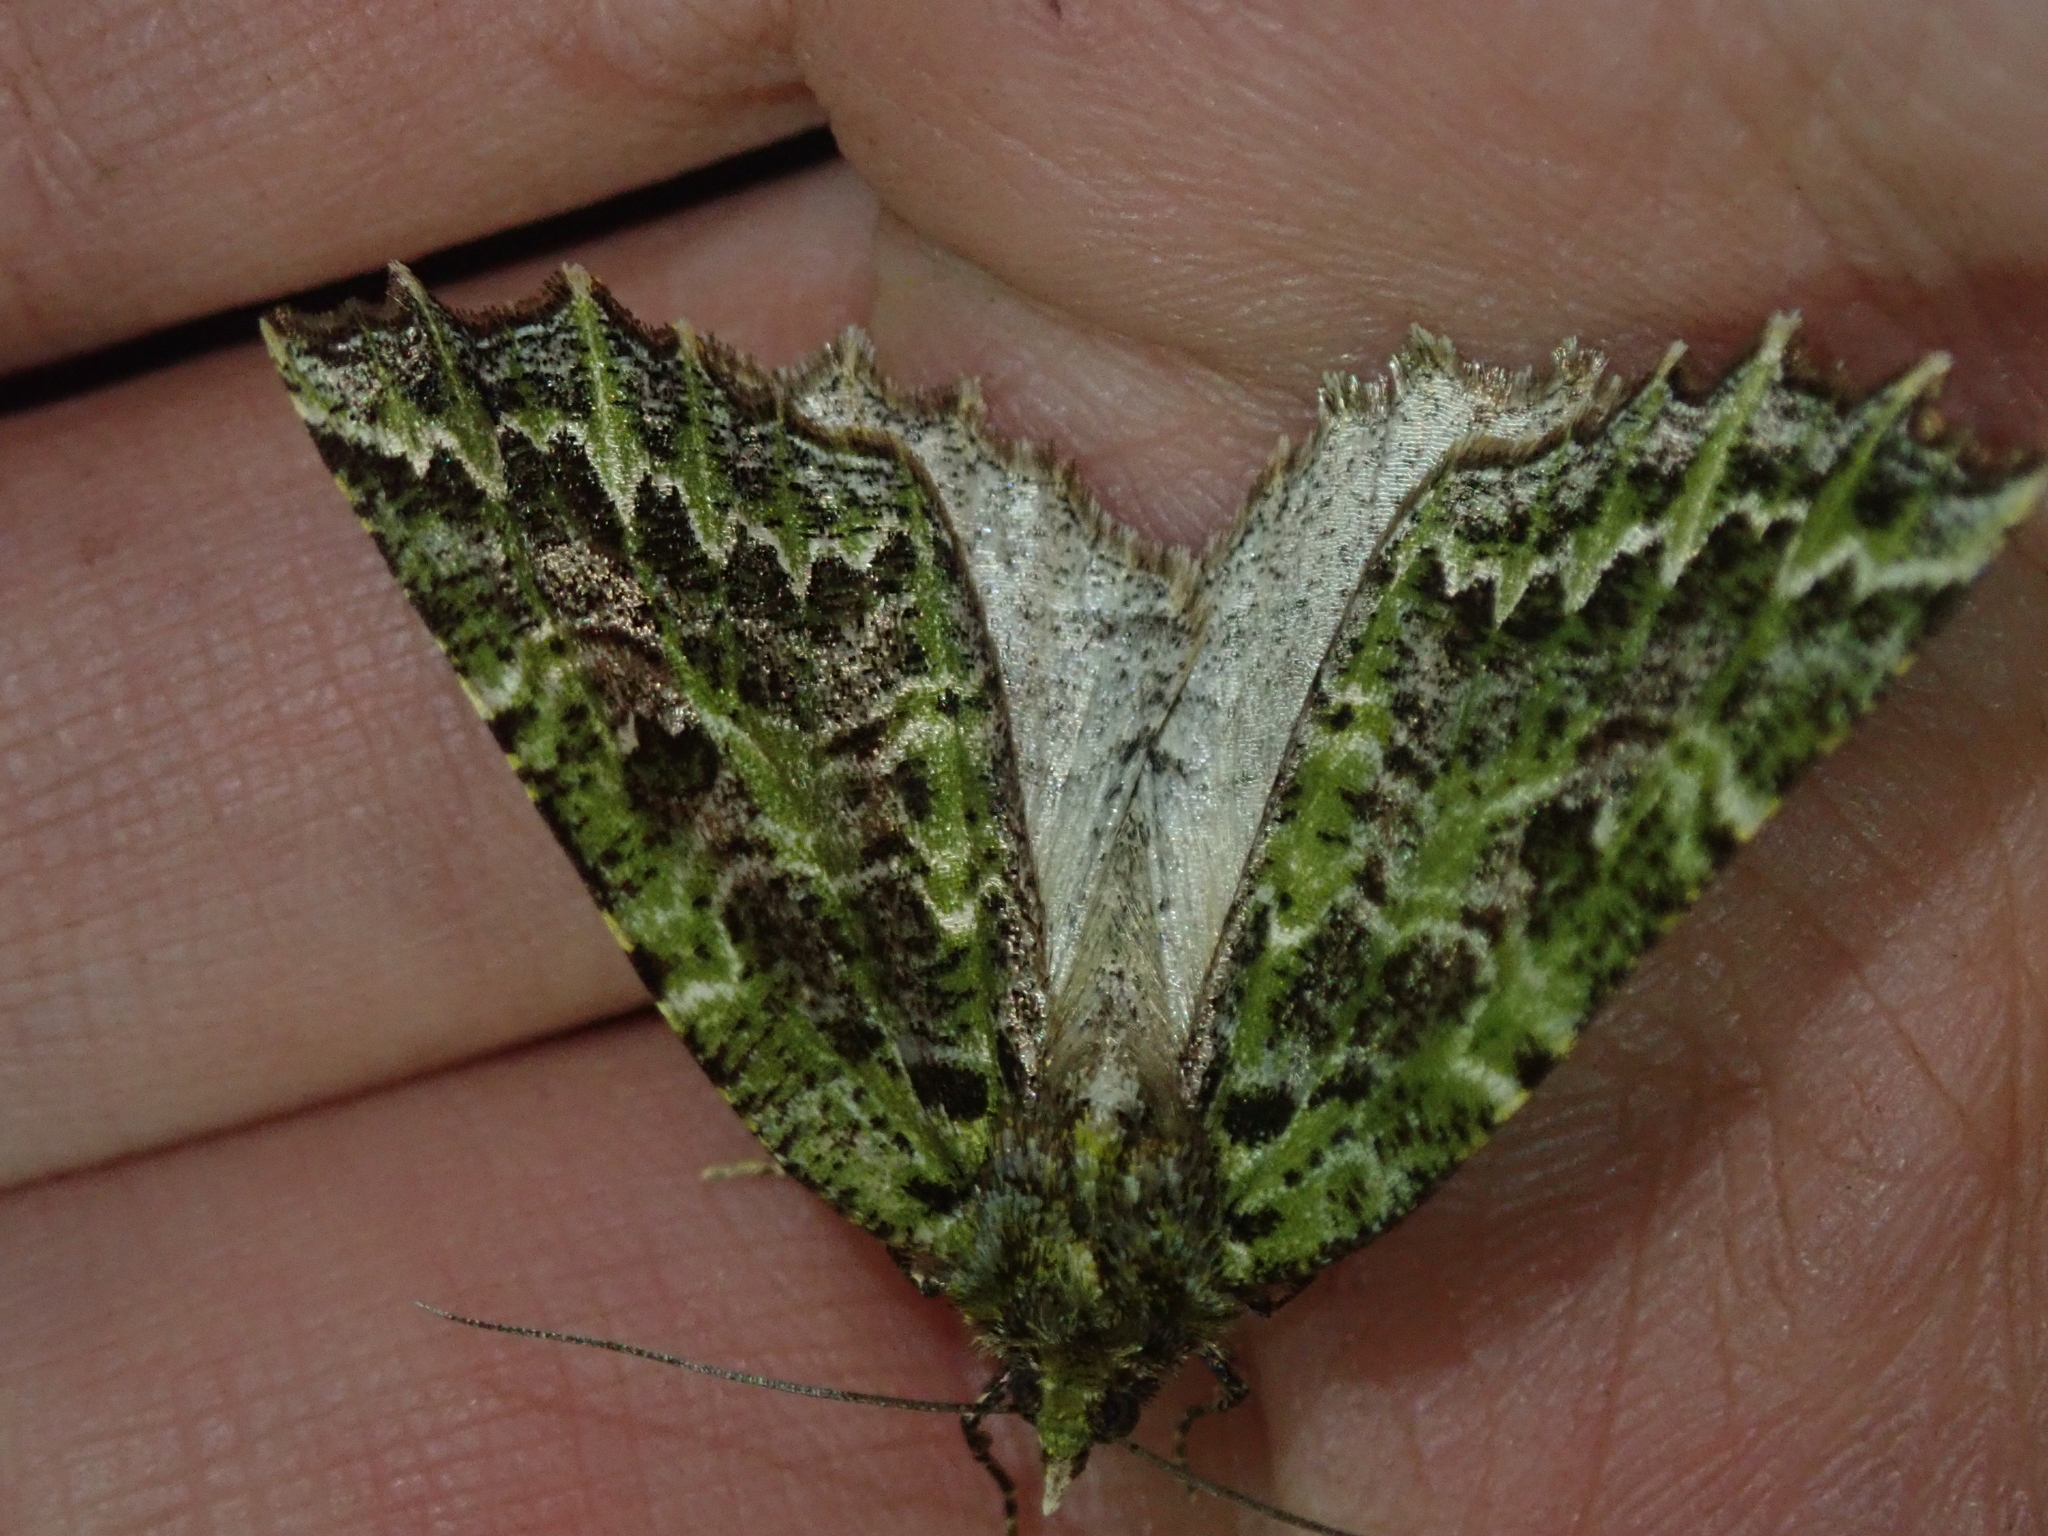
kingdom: Animalia
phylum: Arthropoda
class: Insecta
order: Lepidoptera
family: Geometridae
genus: Herochroma
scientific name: Herochroma Chloroclydon rinodaria
